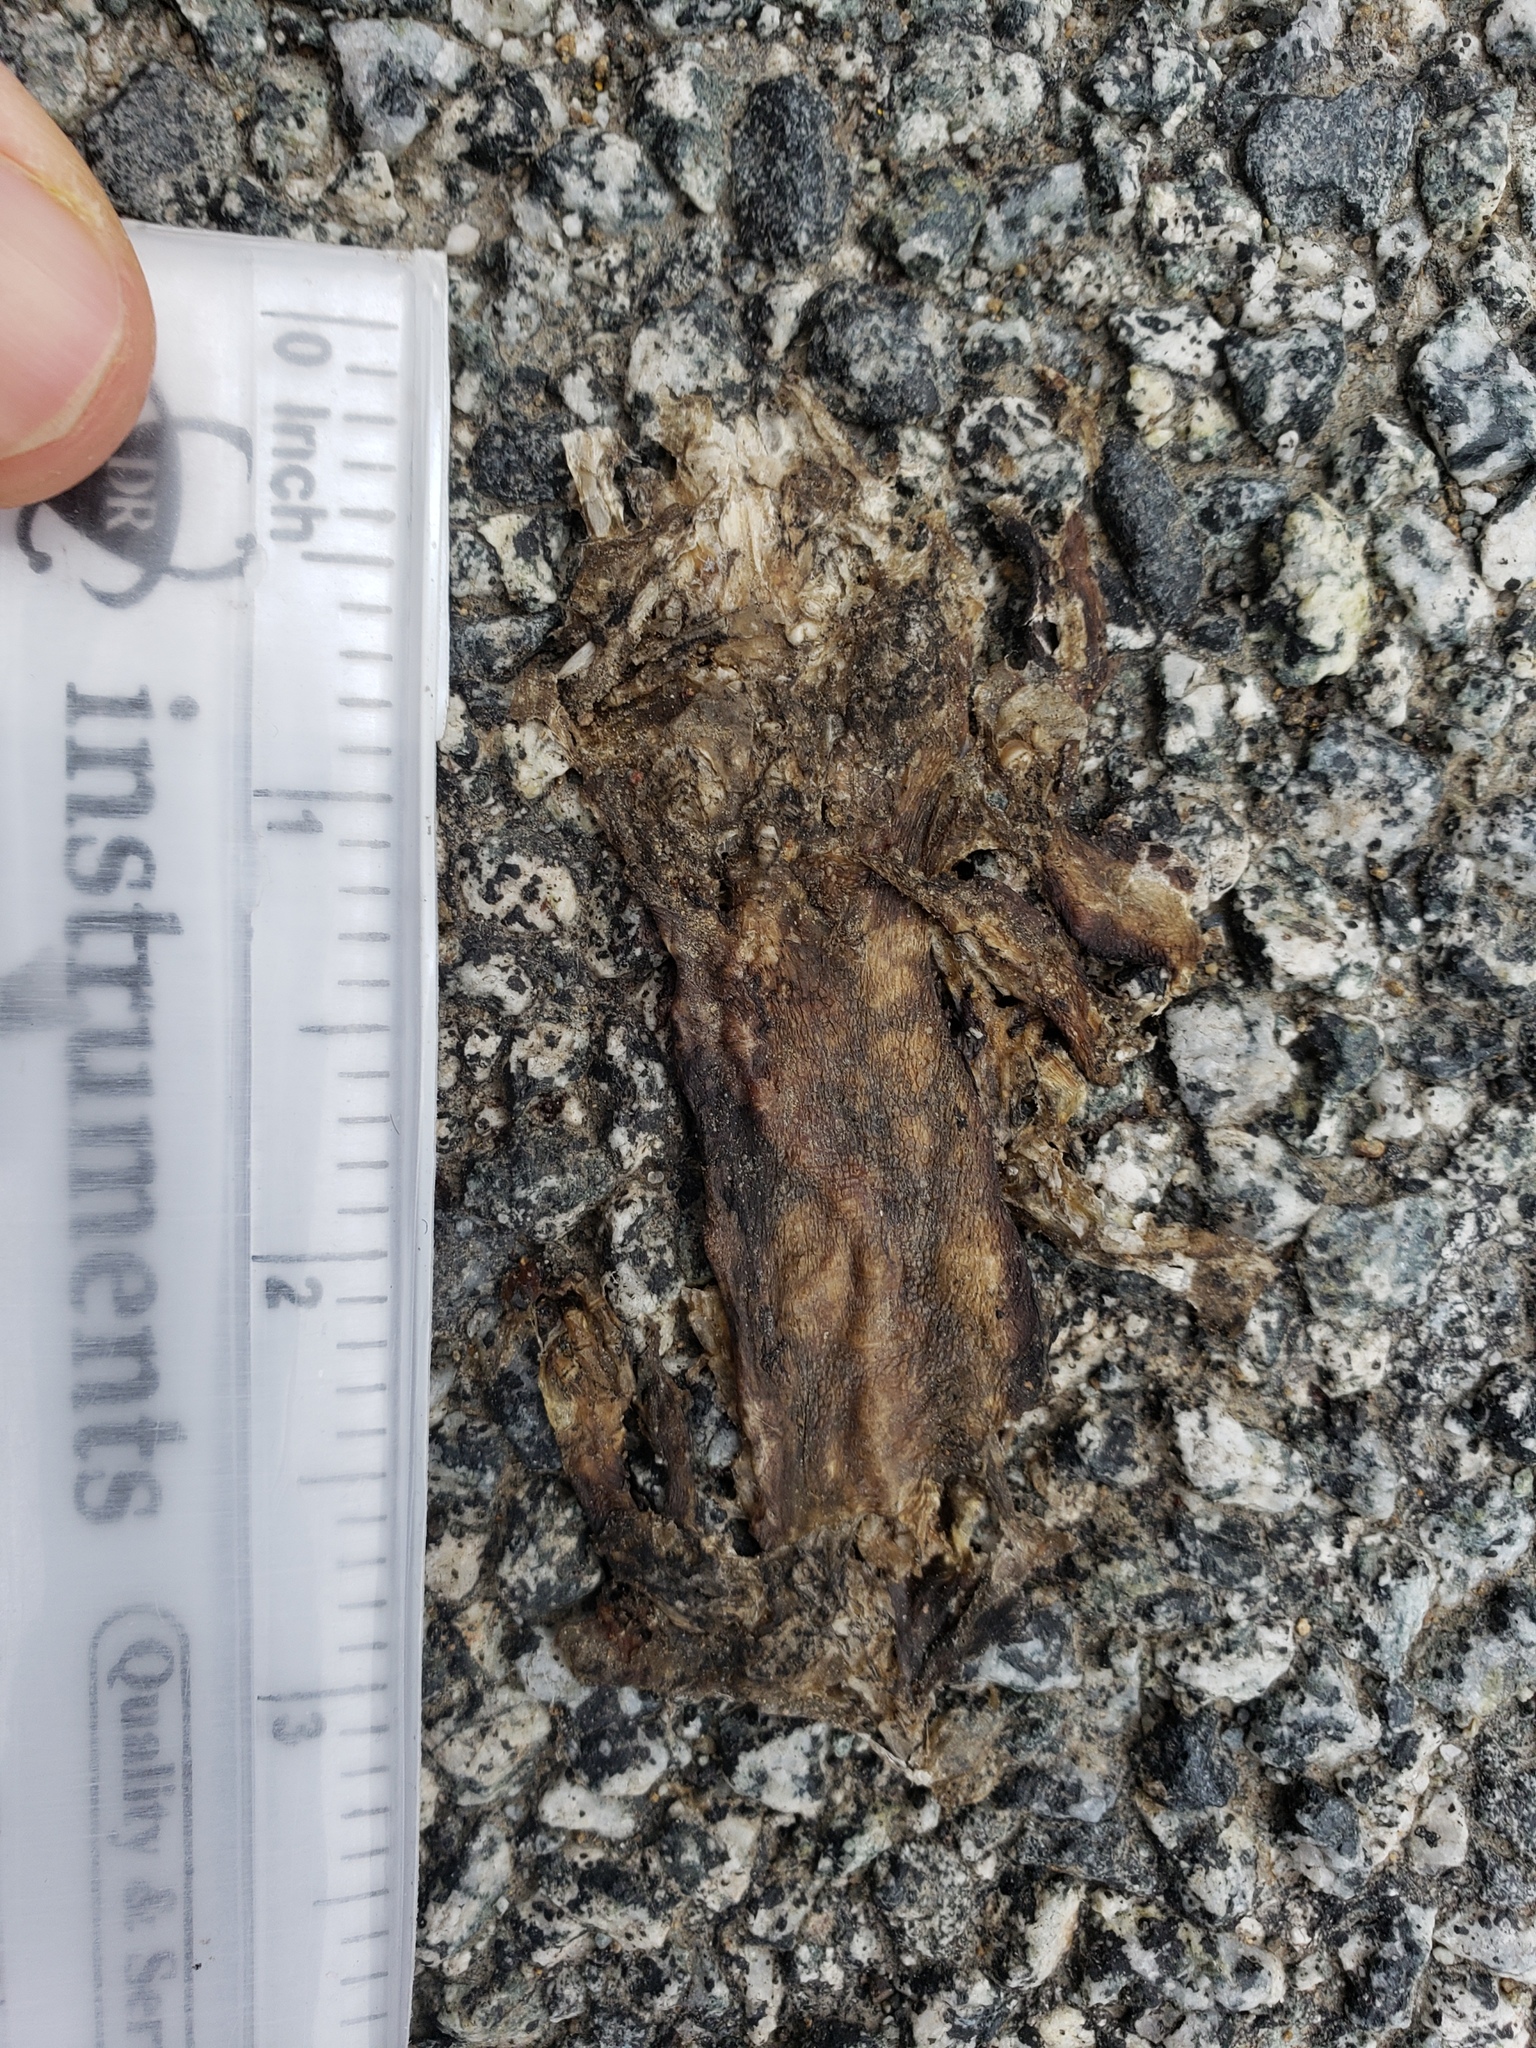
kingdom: Animalia
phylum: Chordata
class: Amphibia
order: Caudata
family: Salamandridae
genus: Taricha
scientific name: Taricha
